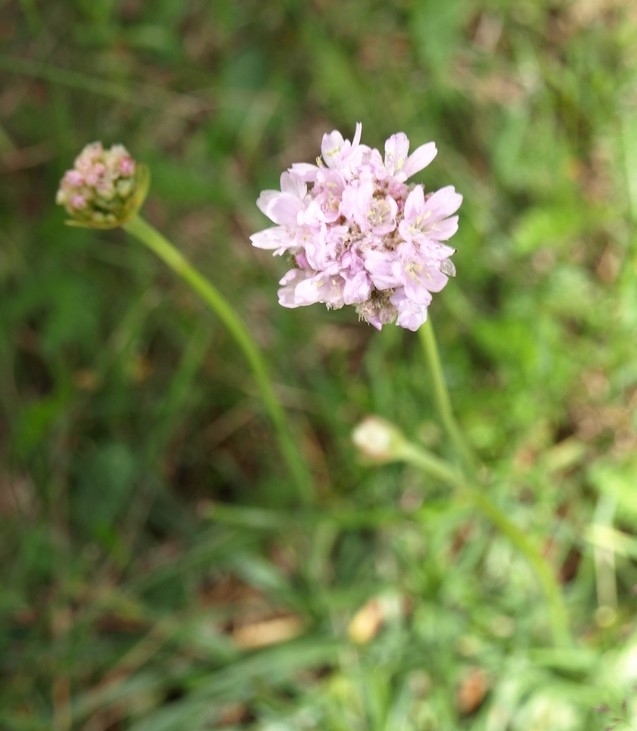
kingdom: Plantae
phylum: Tracheophyta
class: Magnoliopsida
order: Caryophyllales
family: Plumbaginaceae
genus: Armeria
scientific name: Armeria maritima
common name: Thrift
